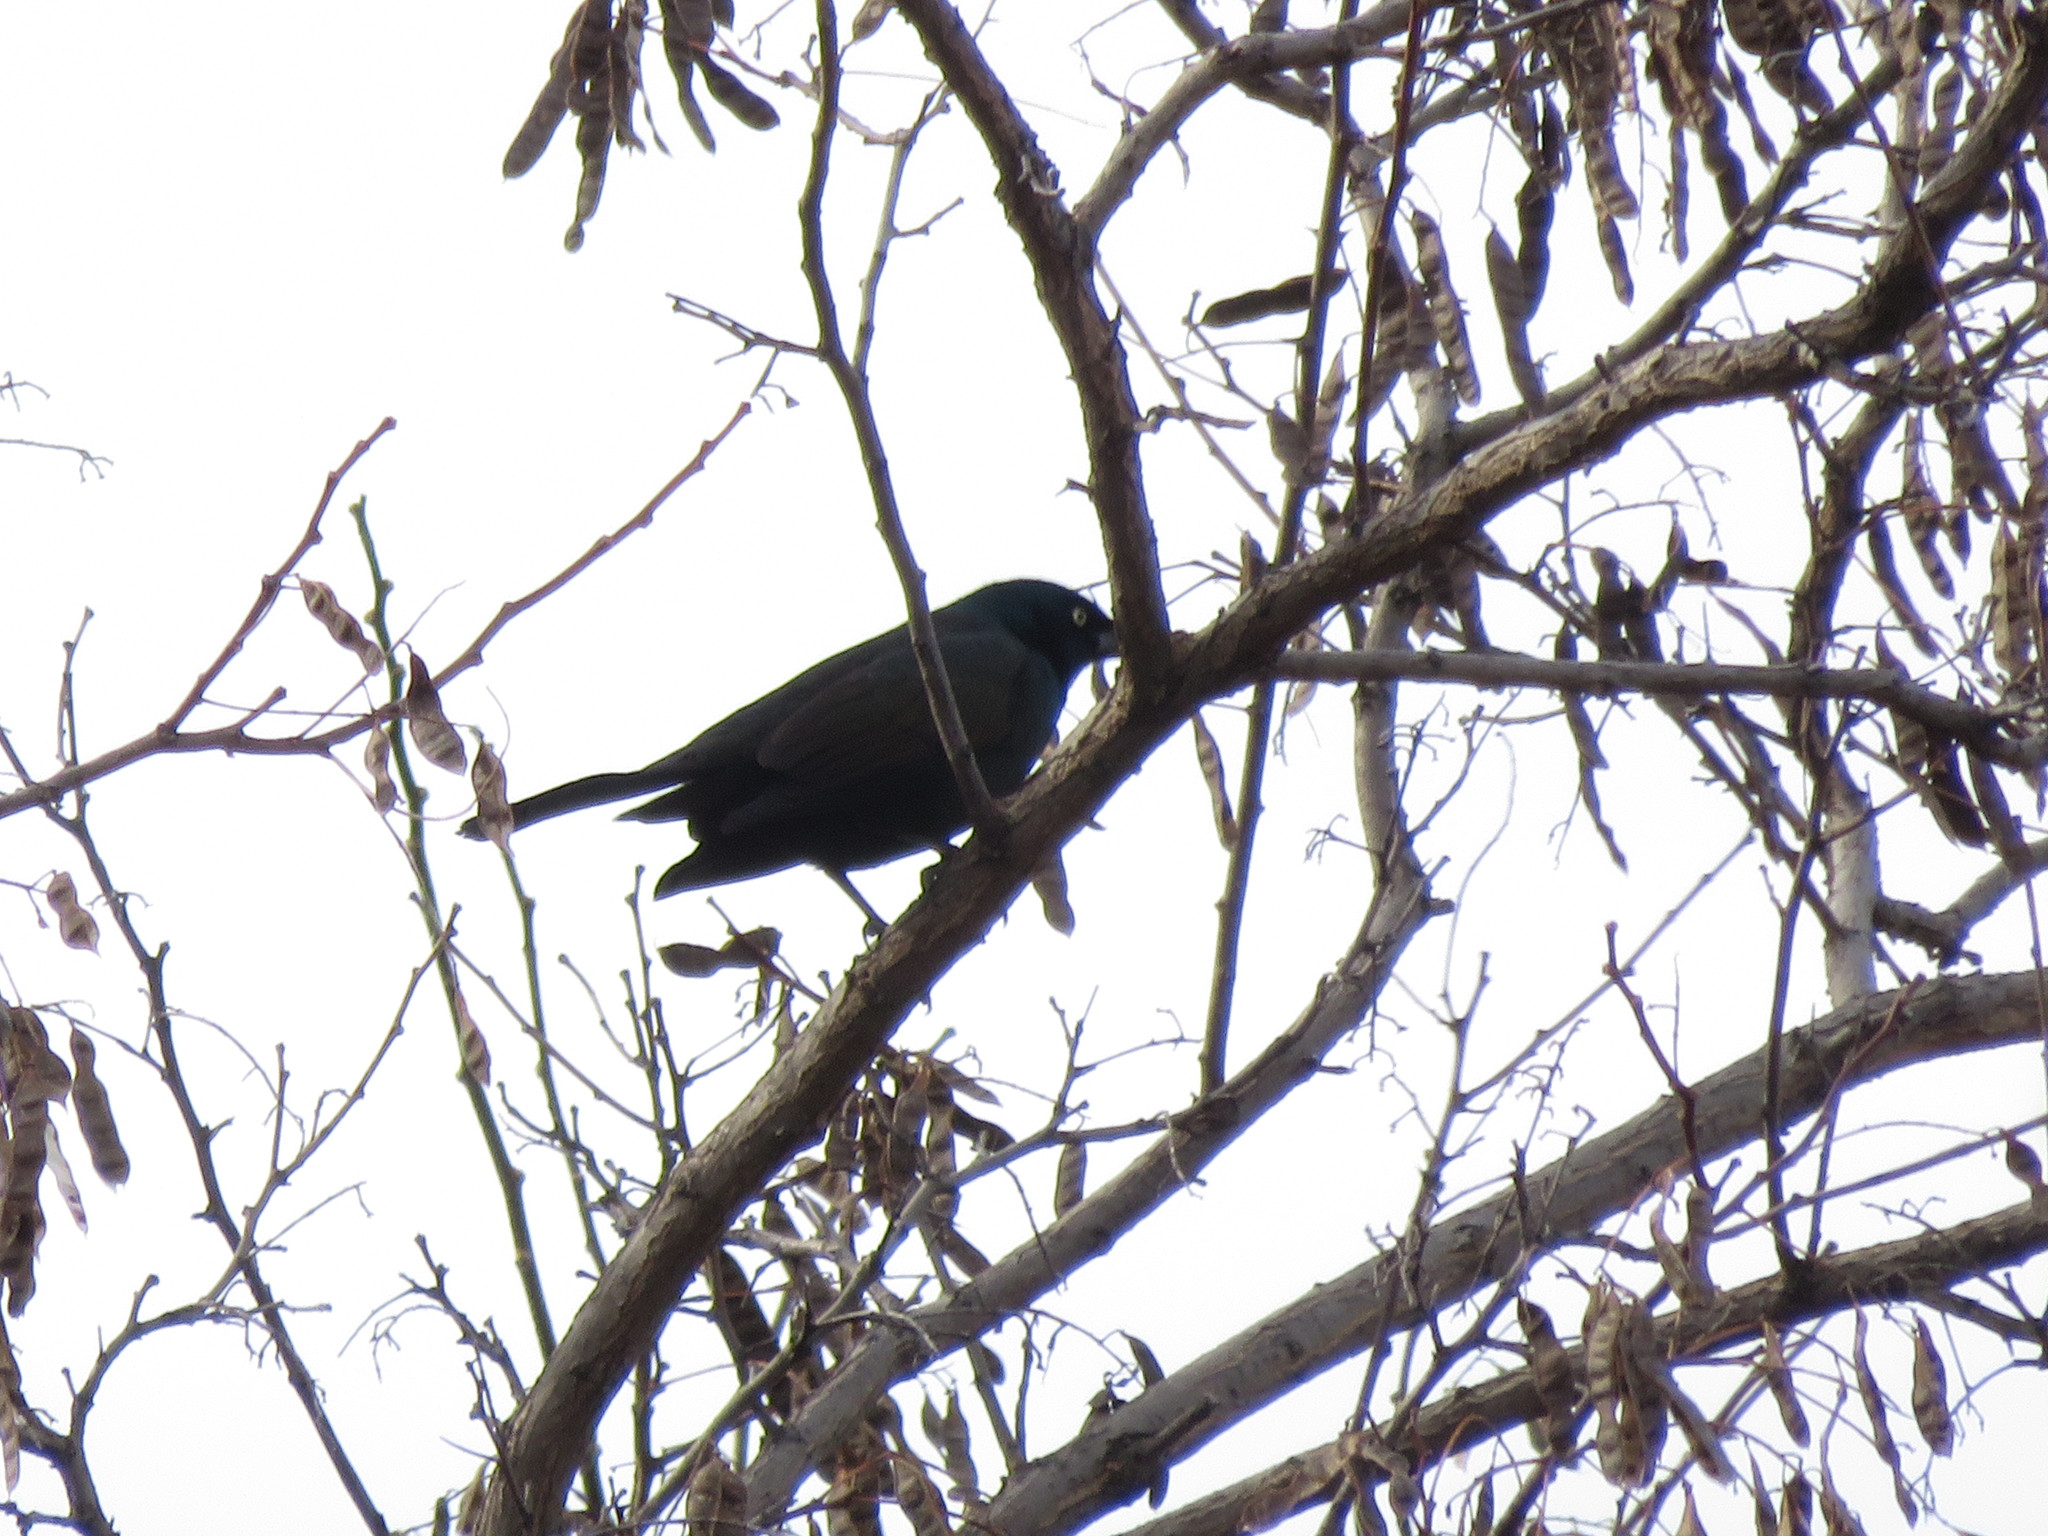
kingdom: Animalia
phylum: Chordata
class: Aves
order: Passeriformes
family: Icteridae
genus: Quiscalus
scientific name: Quiscalus quiscula
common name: Common grackle
